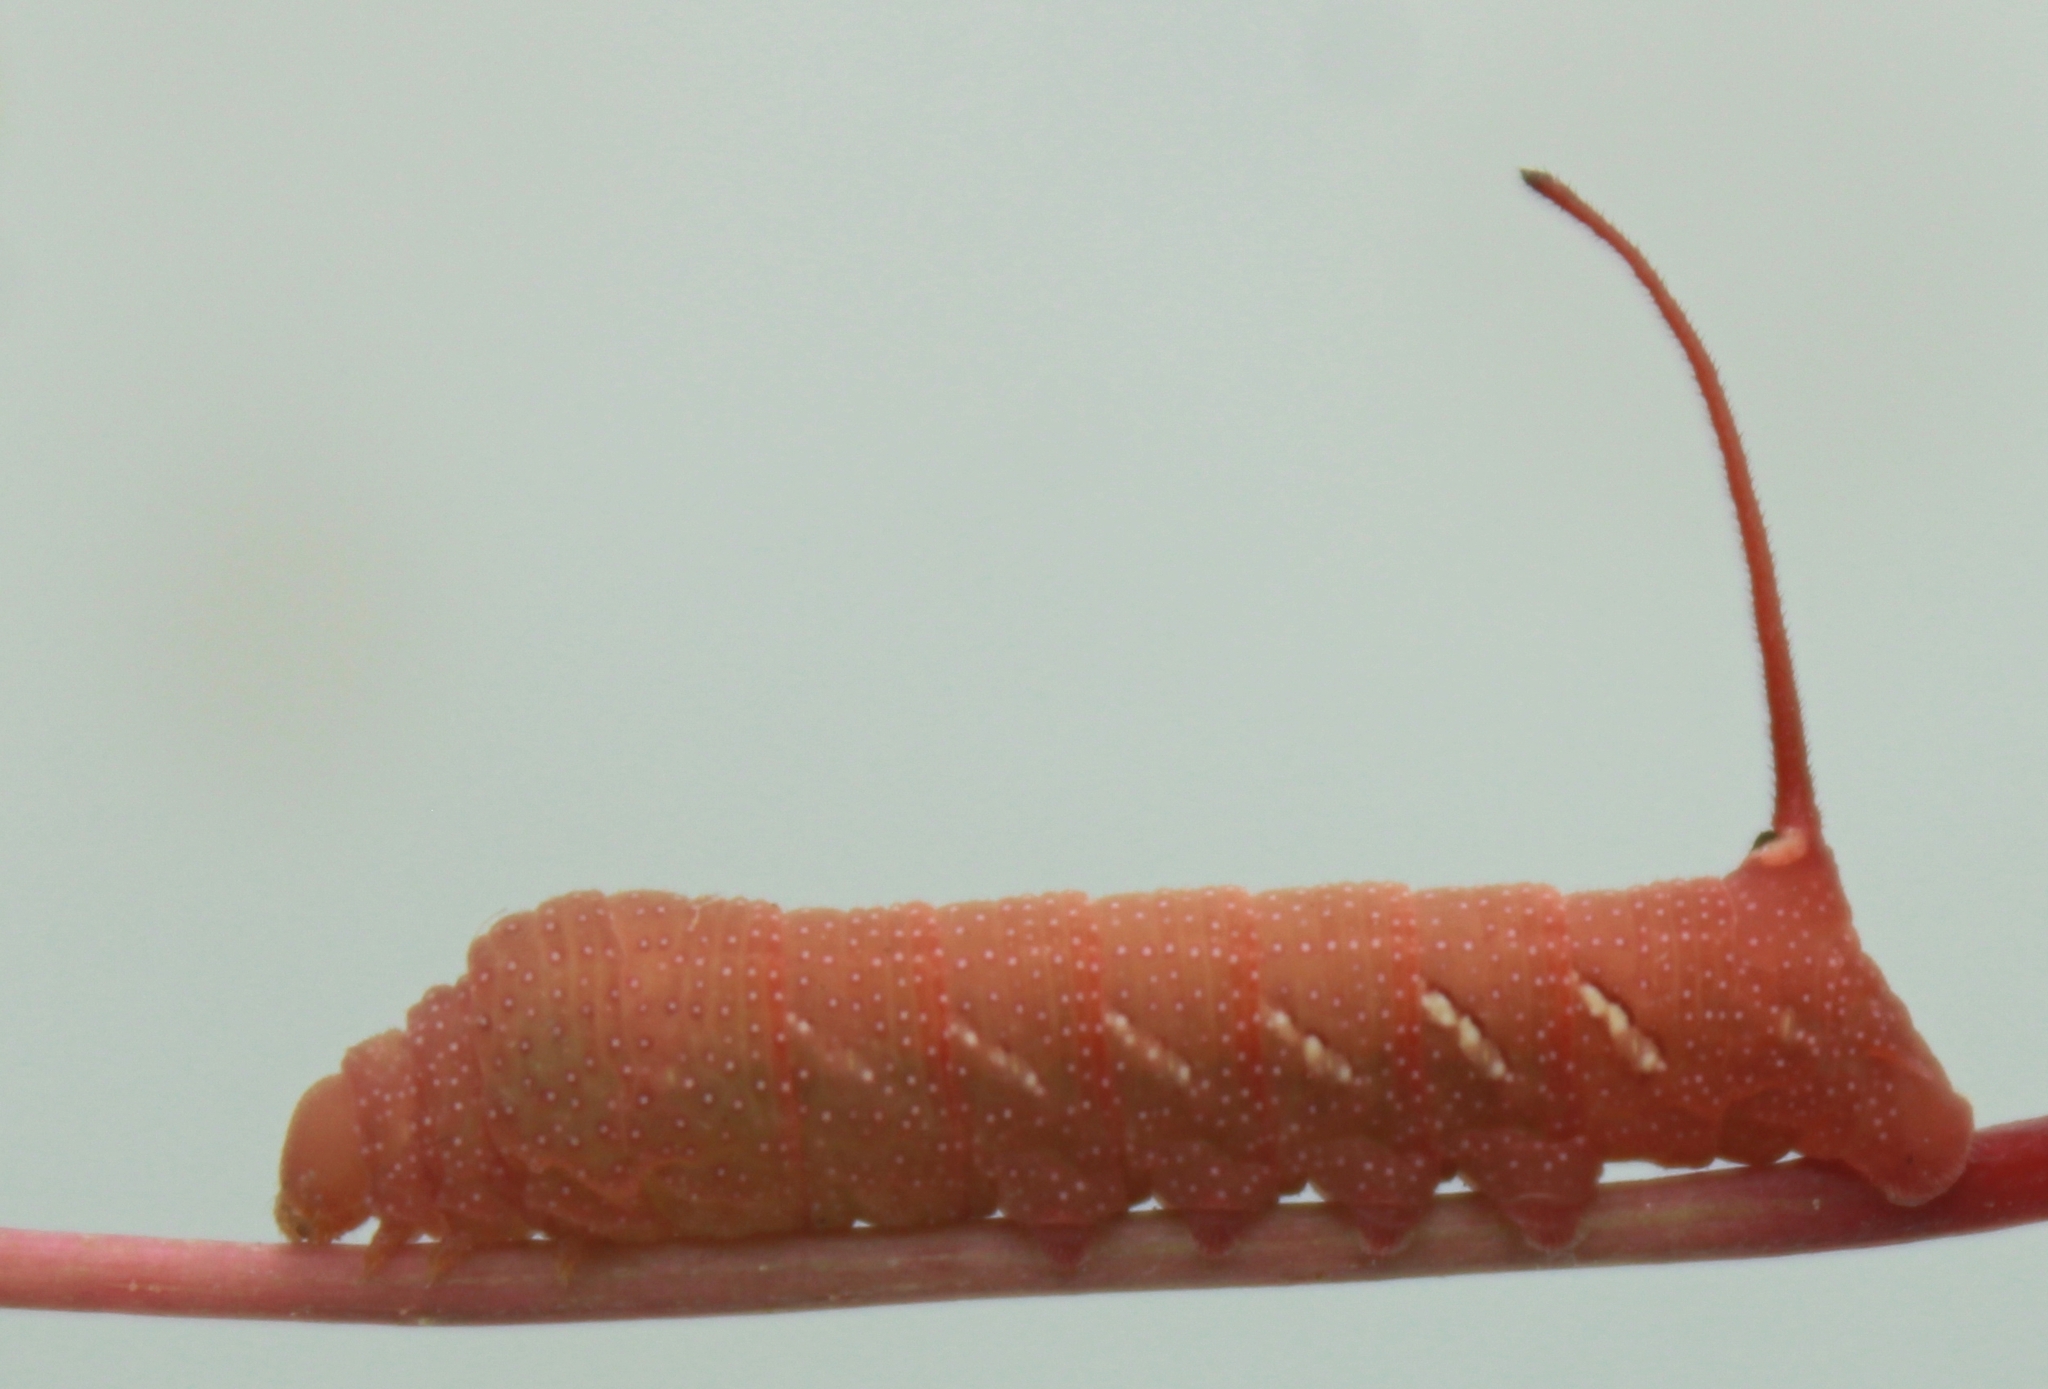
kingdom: Animalia
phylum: Arthropoda
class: Insecta
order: Lepidoptera
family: Sphingidae
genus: Eumorpha
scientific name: Eumorpha achemon
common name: Achemon sphinx
